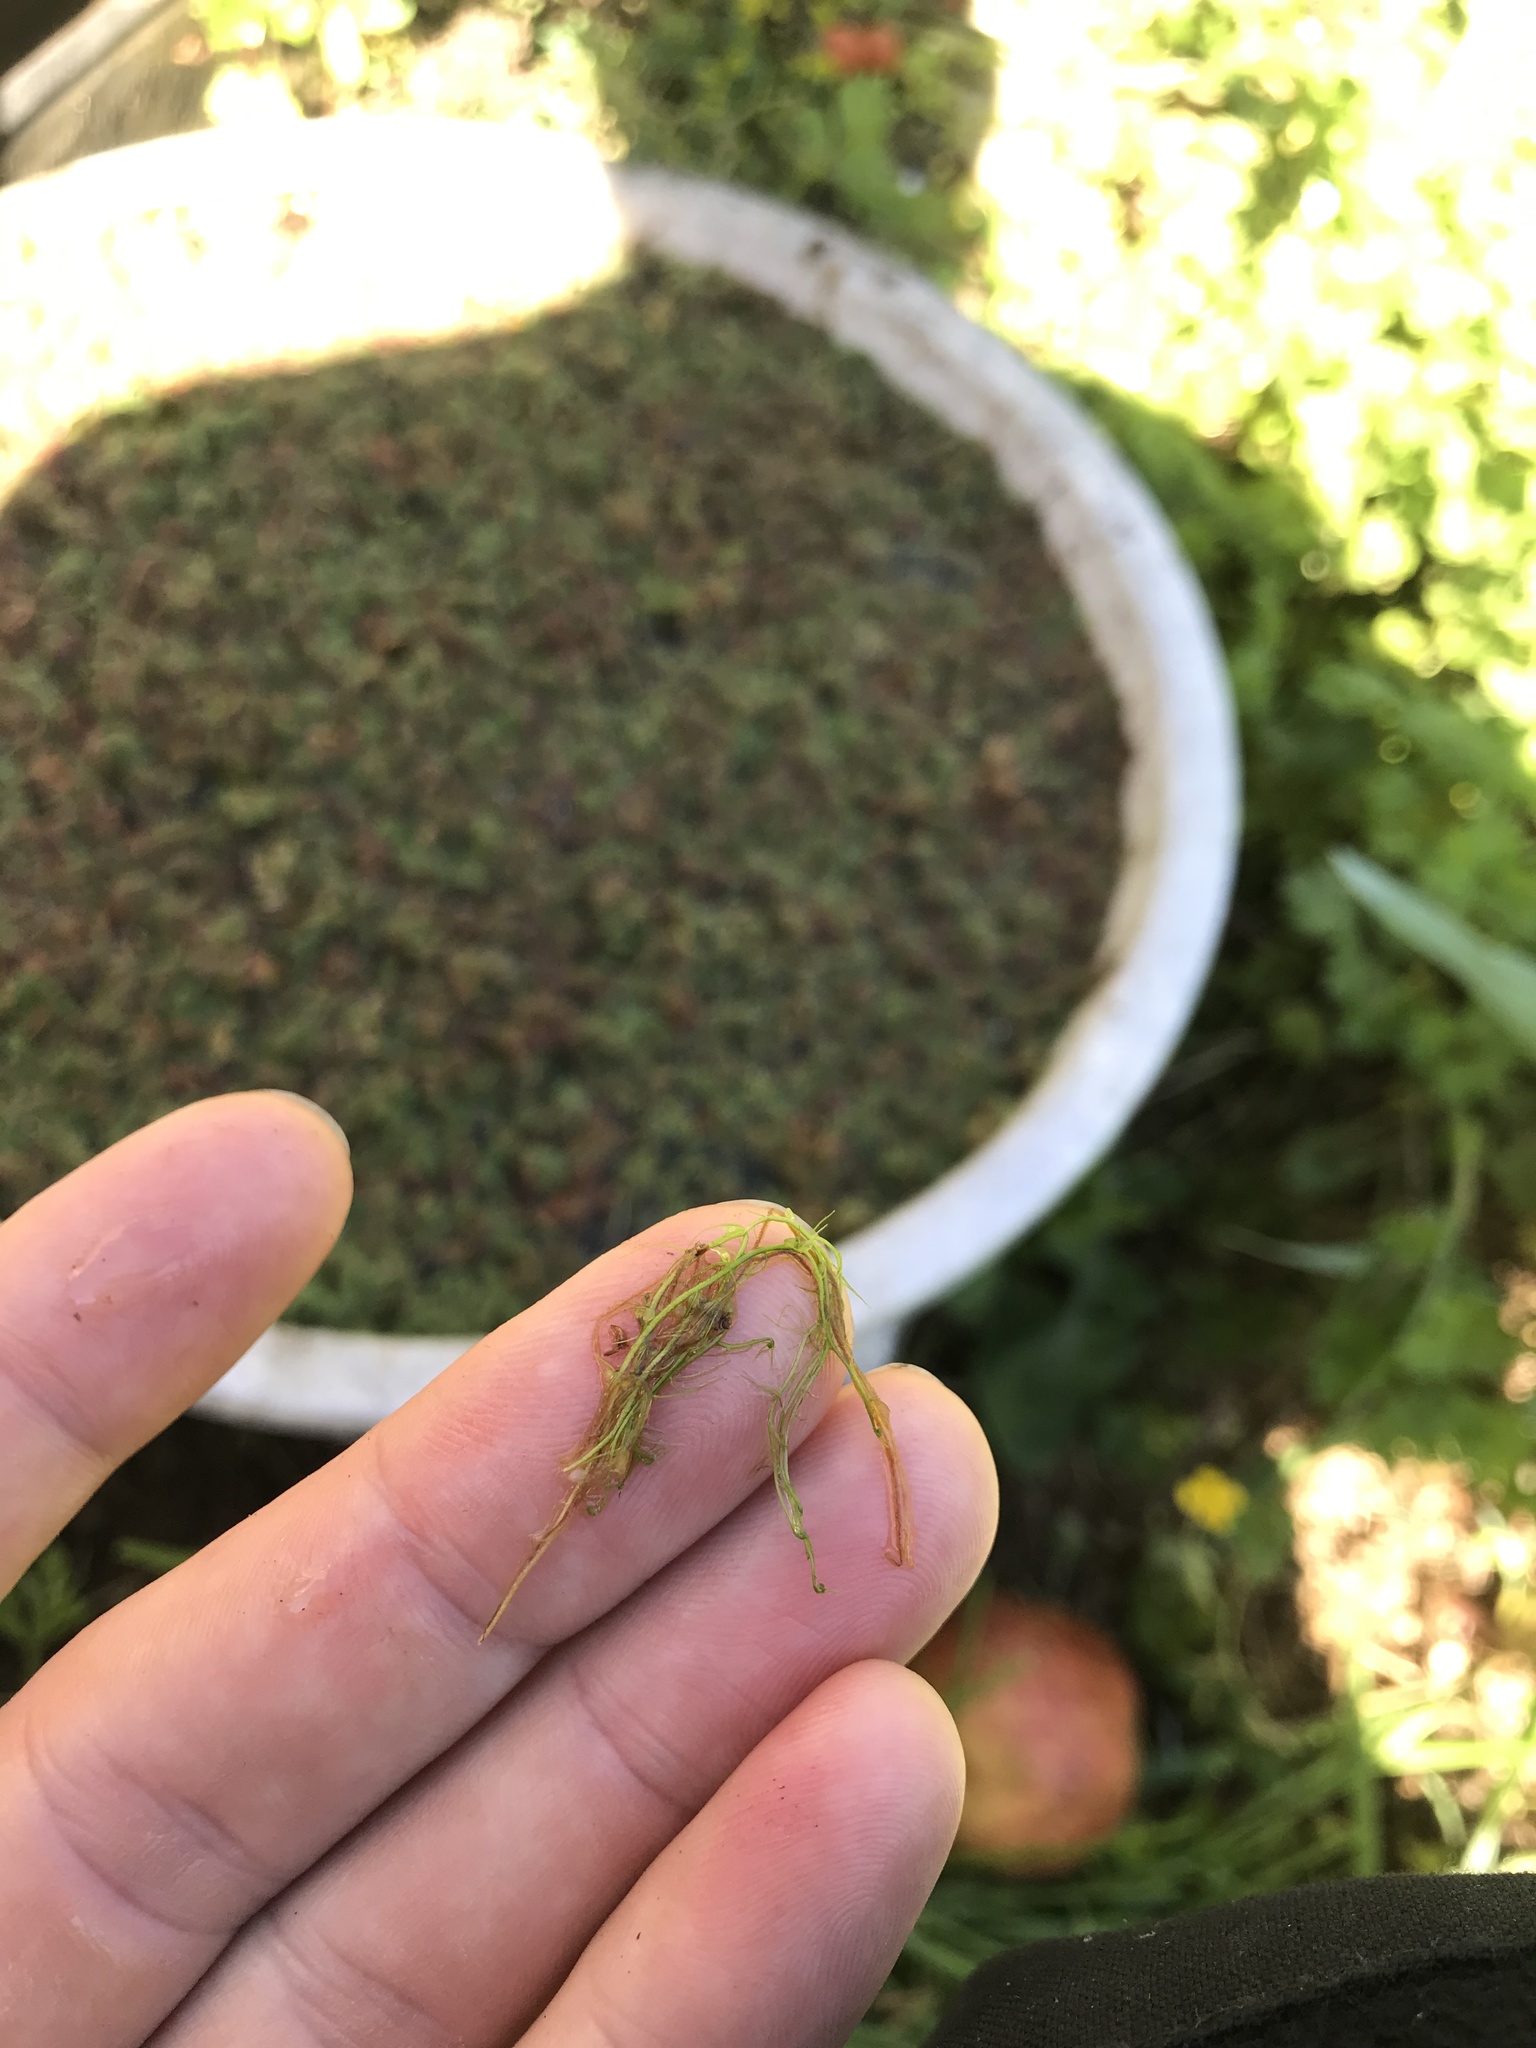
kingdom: Plantae
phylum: Tracheophyta
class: Magnoliopsida
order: Lamiales
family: Lentibulariaceae
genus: Utricularia
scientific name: Utricularia gibba
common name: Humped bladderwort
